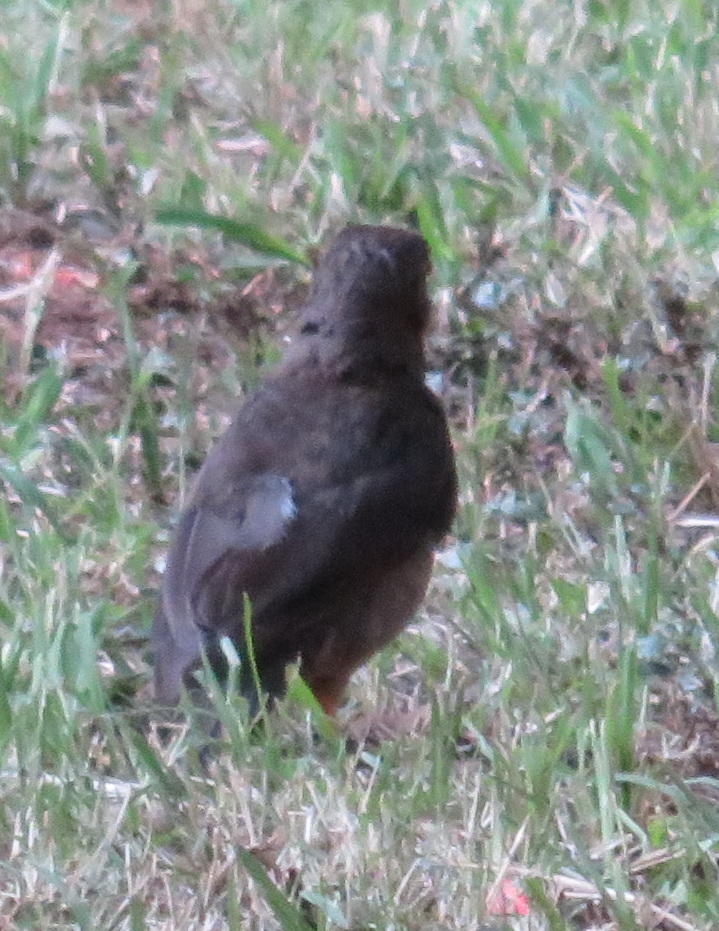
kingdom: Animalia
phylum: Chordata
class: Aves
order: Passeriformes
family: Turdidae
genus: Turdus
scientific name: Turdus smithi
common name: Karoo thrush
